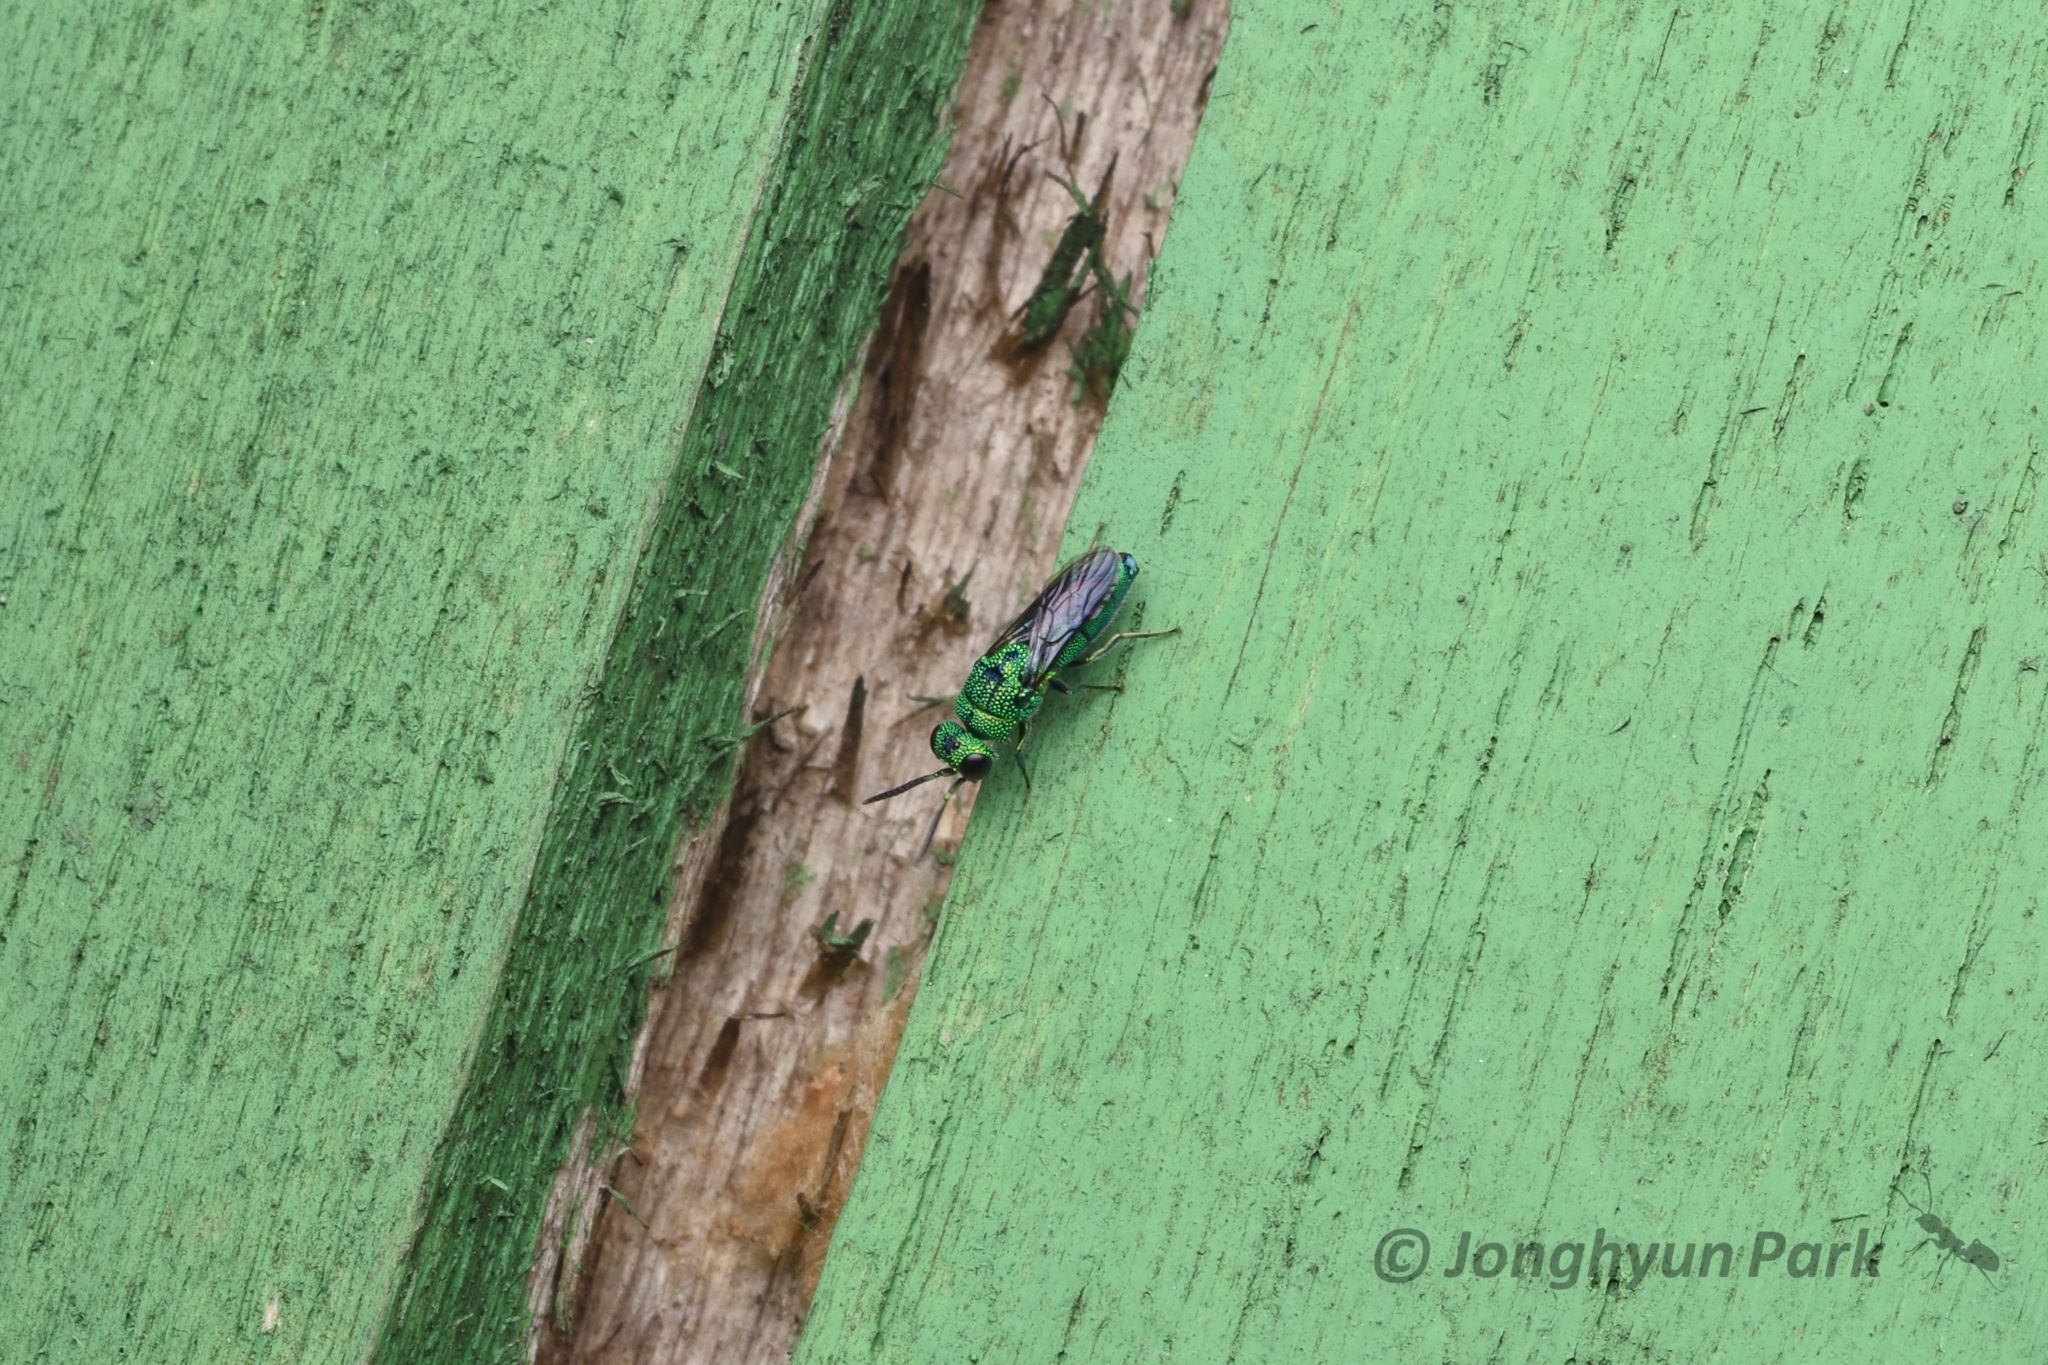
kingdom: Animalia
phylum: Arthropoda
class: Insecta
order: Hymenoptera
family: Chrysididae
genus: Caenochrysis
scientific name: Caenochrysis
